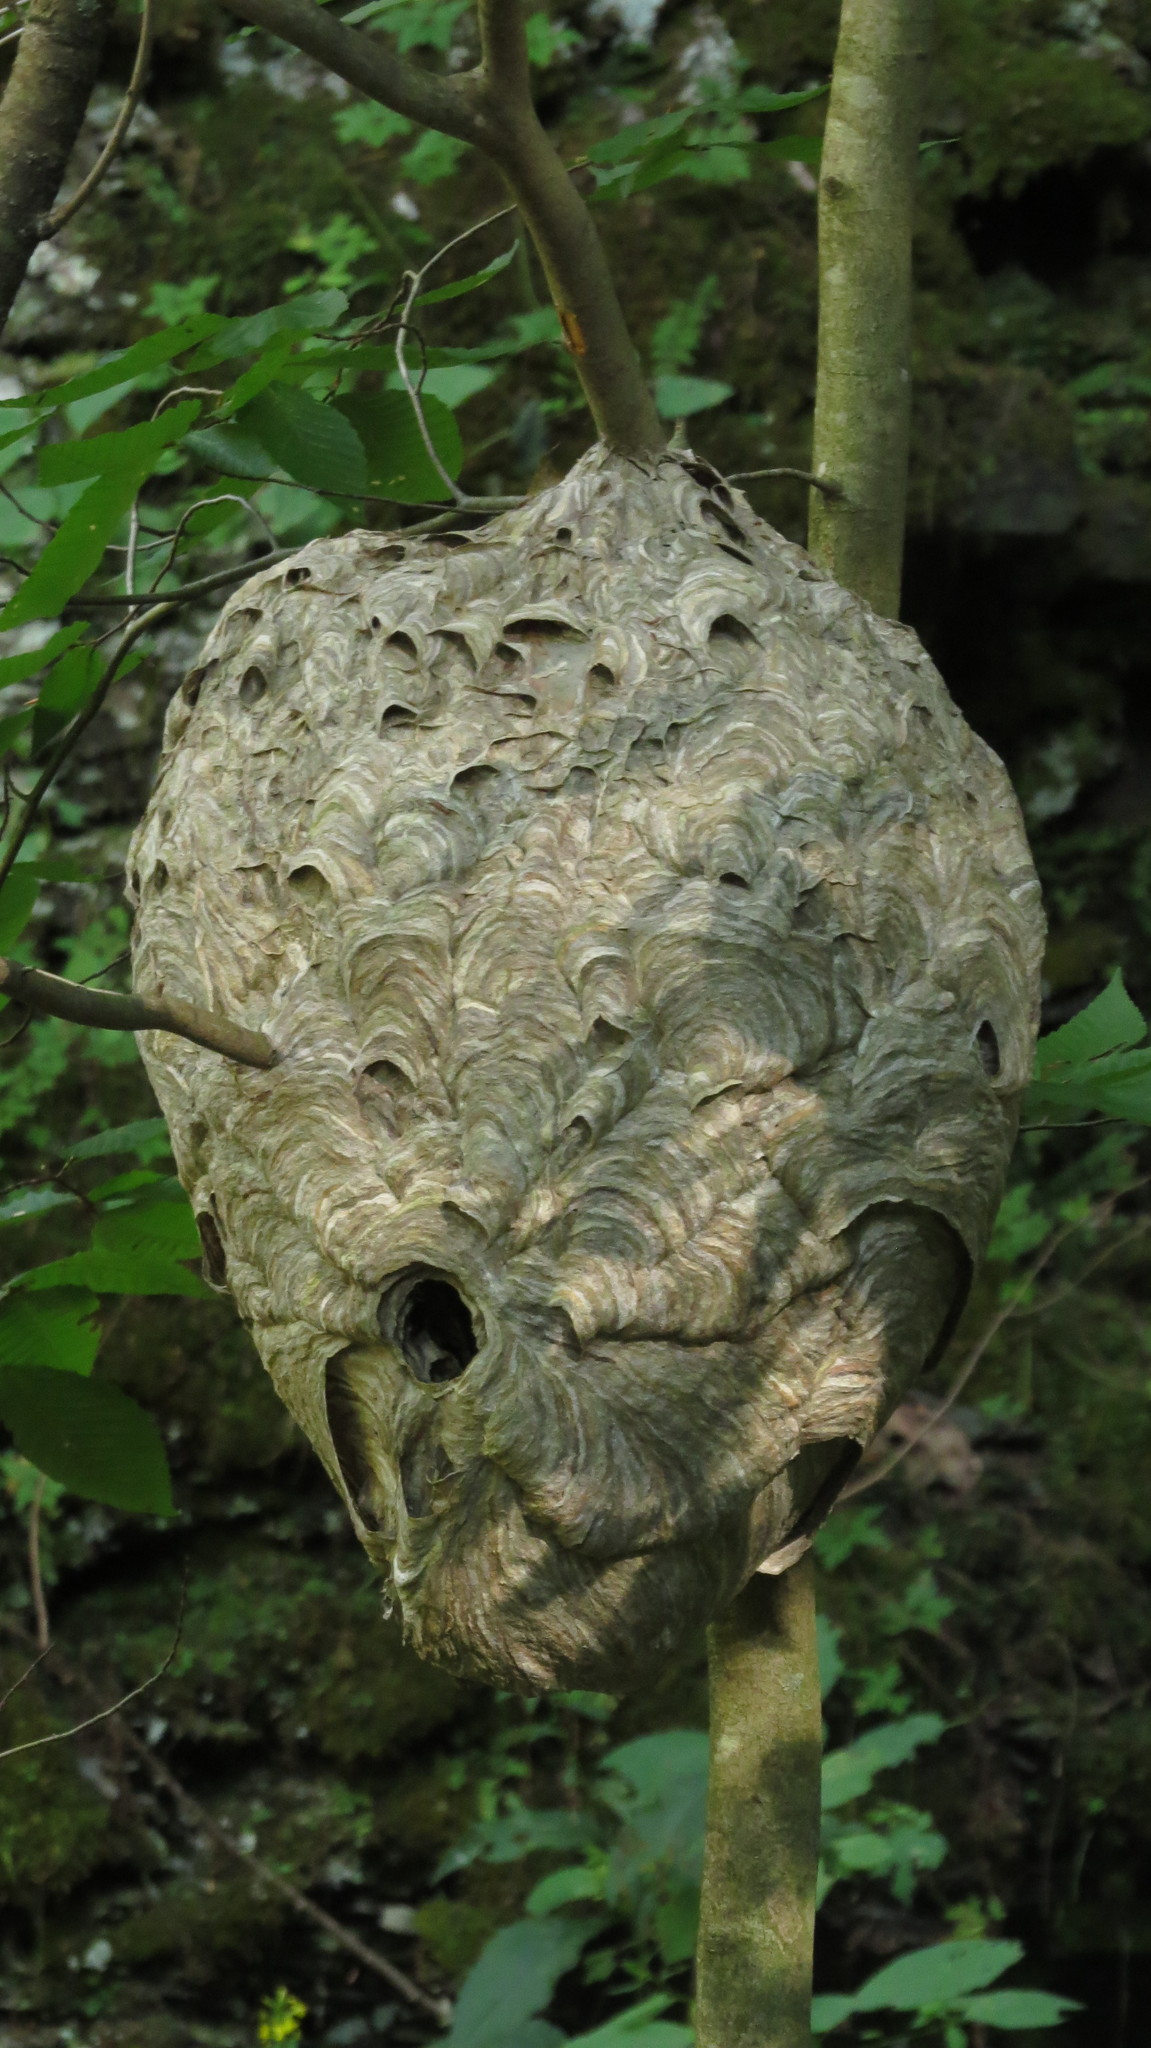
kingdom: Animalia
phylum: Arthropoda
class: Insecta
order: Hymenoptera
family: Vespidae
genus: Dolichovespula
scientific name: Dolichovespula maculata
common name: Bald-faced hornet
